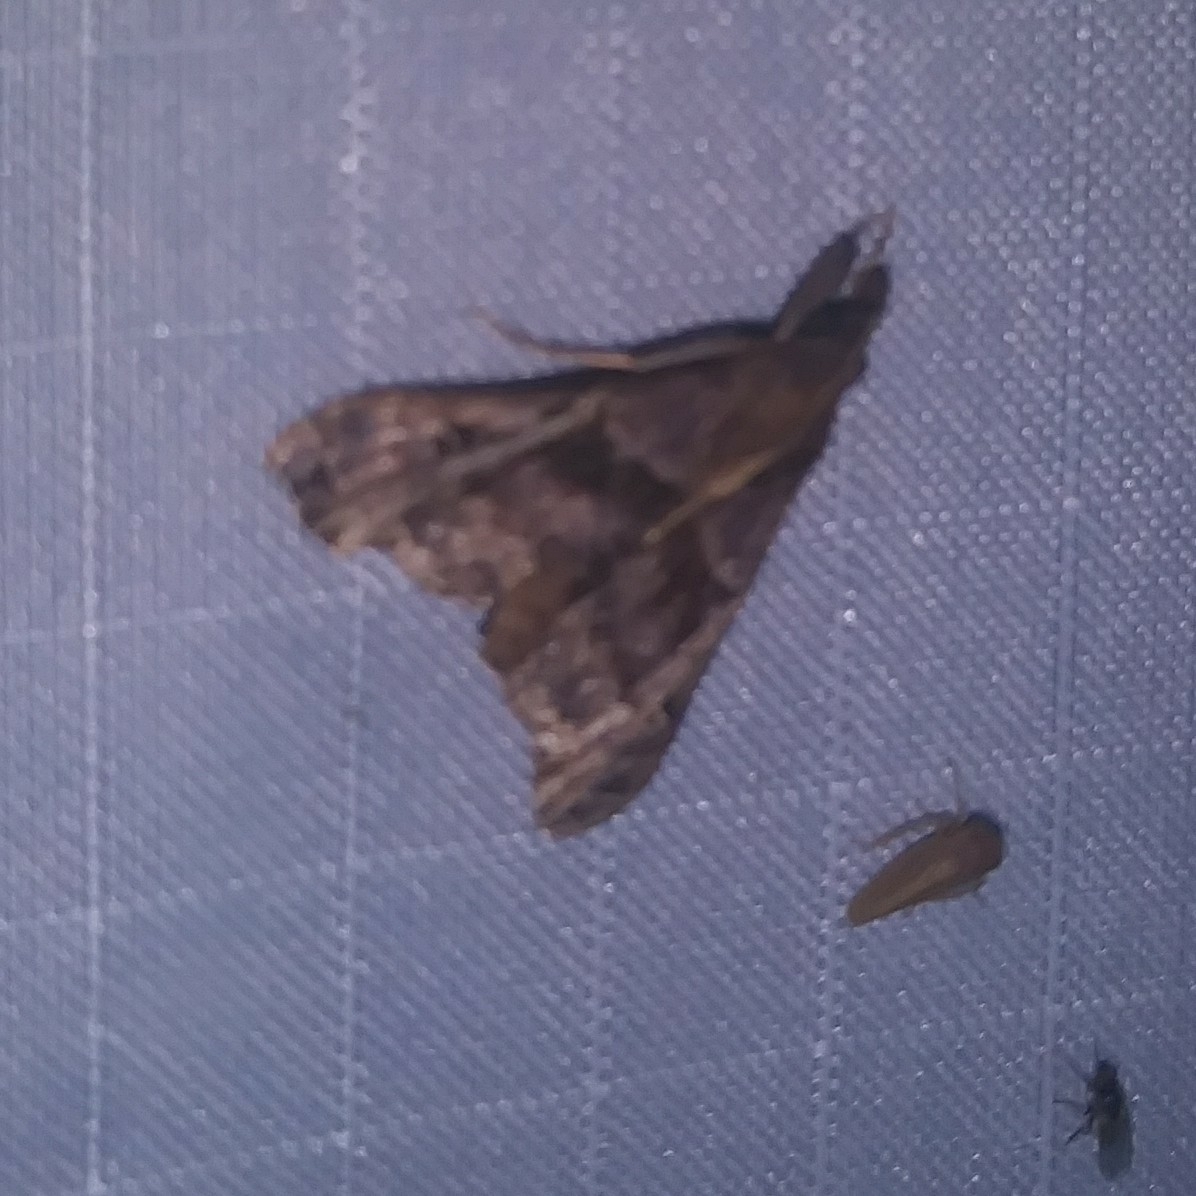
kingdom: Animalia
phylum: Arthropoda
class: Insecta
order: Lepidoptera
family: Erebidae
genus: Palthis
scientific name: Palthis asopialis
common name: Faint-spotted palthis moth
